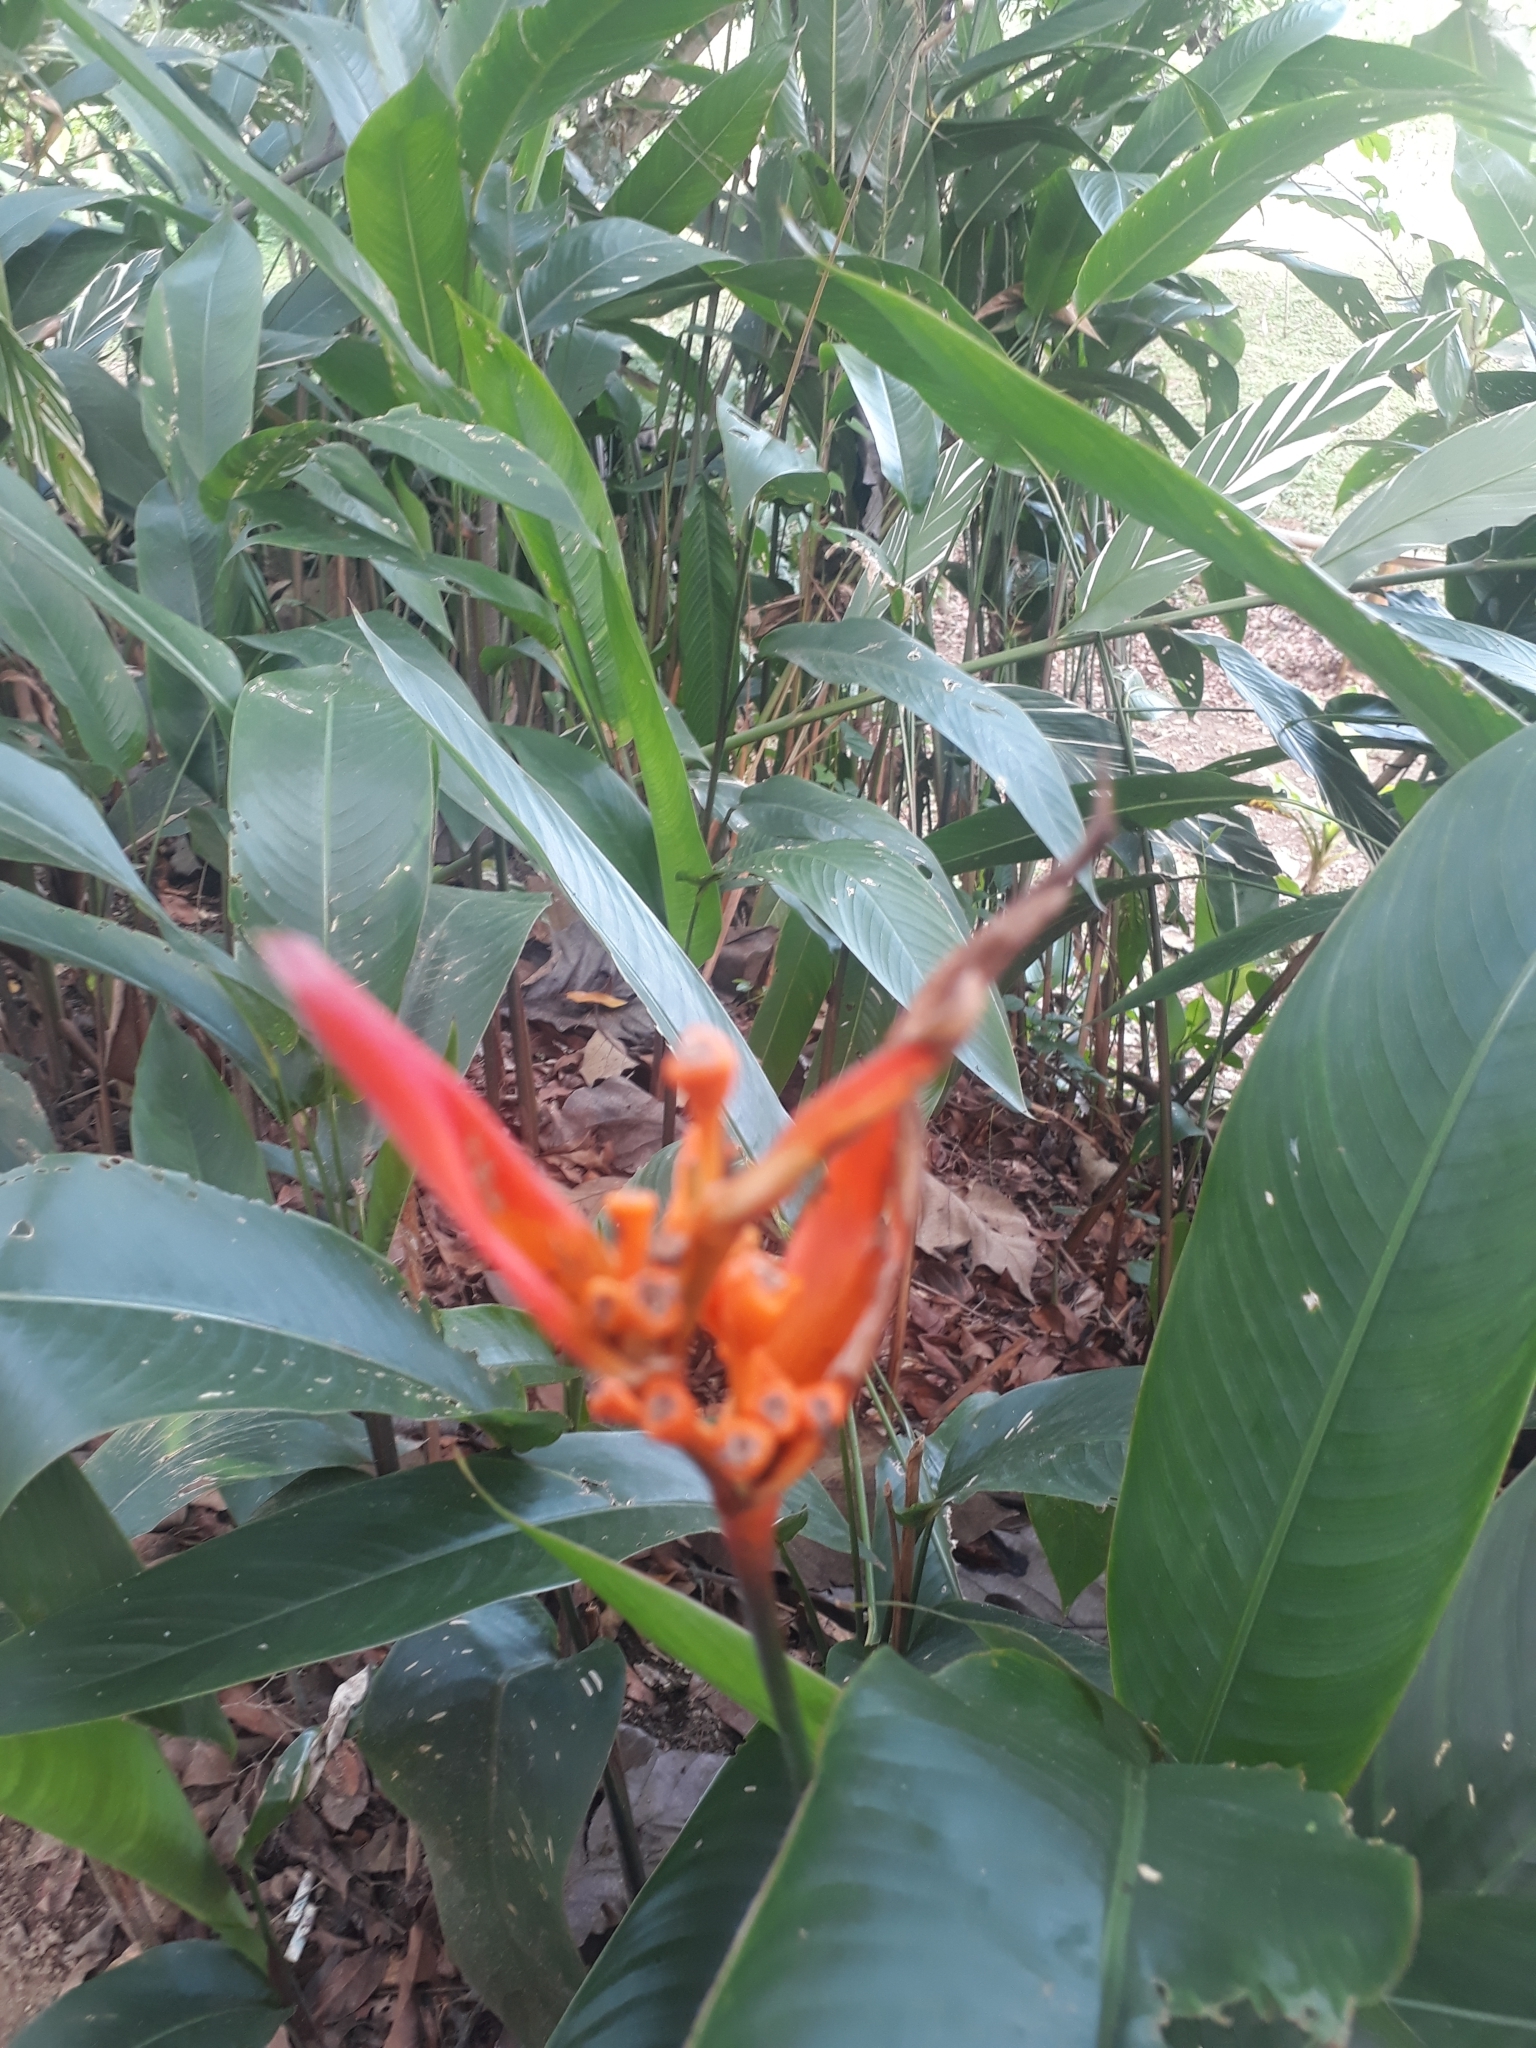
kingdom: Plantae
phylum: Tracheophyta
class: Liliopsida
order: Zingiberales
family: Heliconiaceae
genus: Heliconia
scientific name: Heliconia psittacorum
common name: Parrot's-flower
